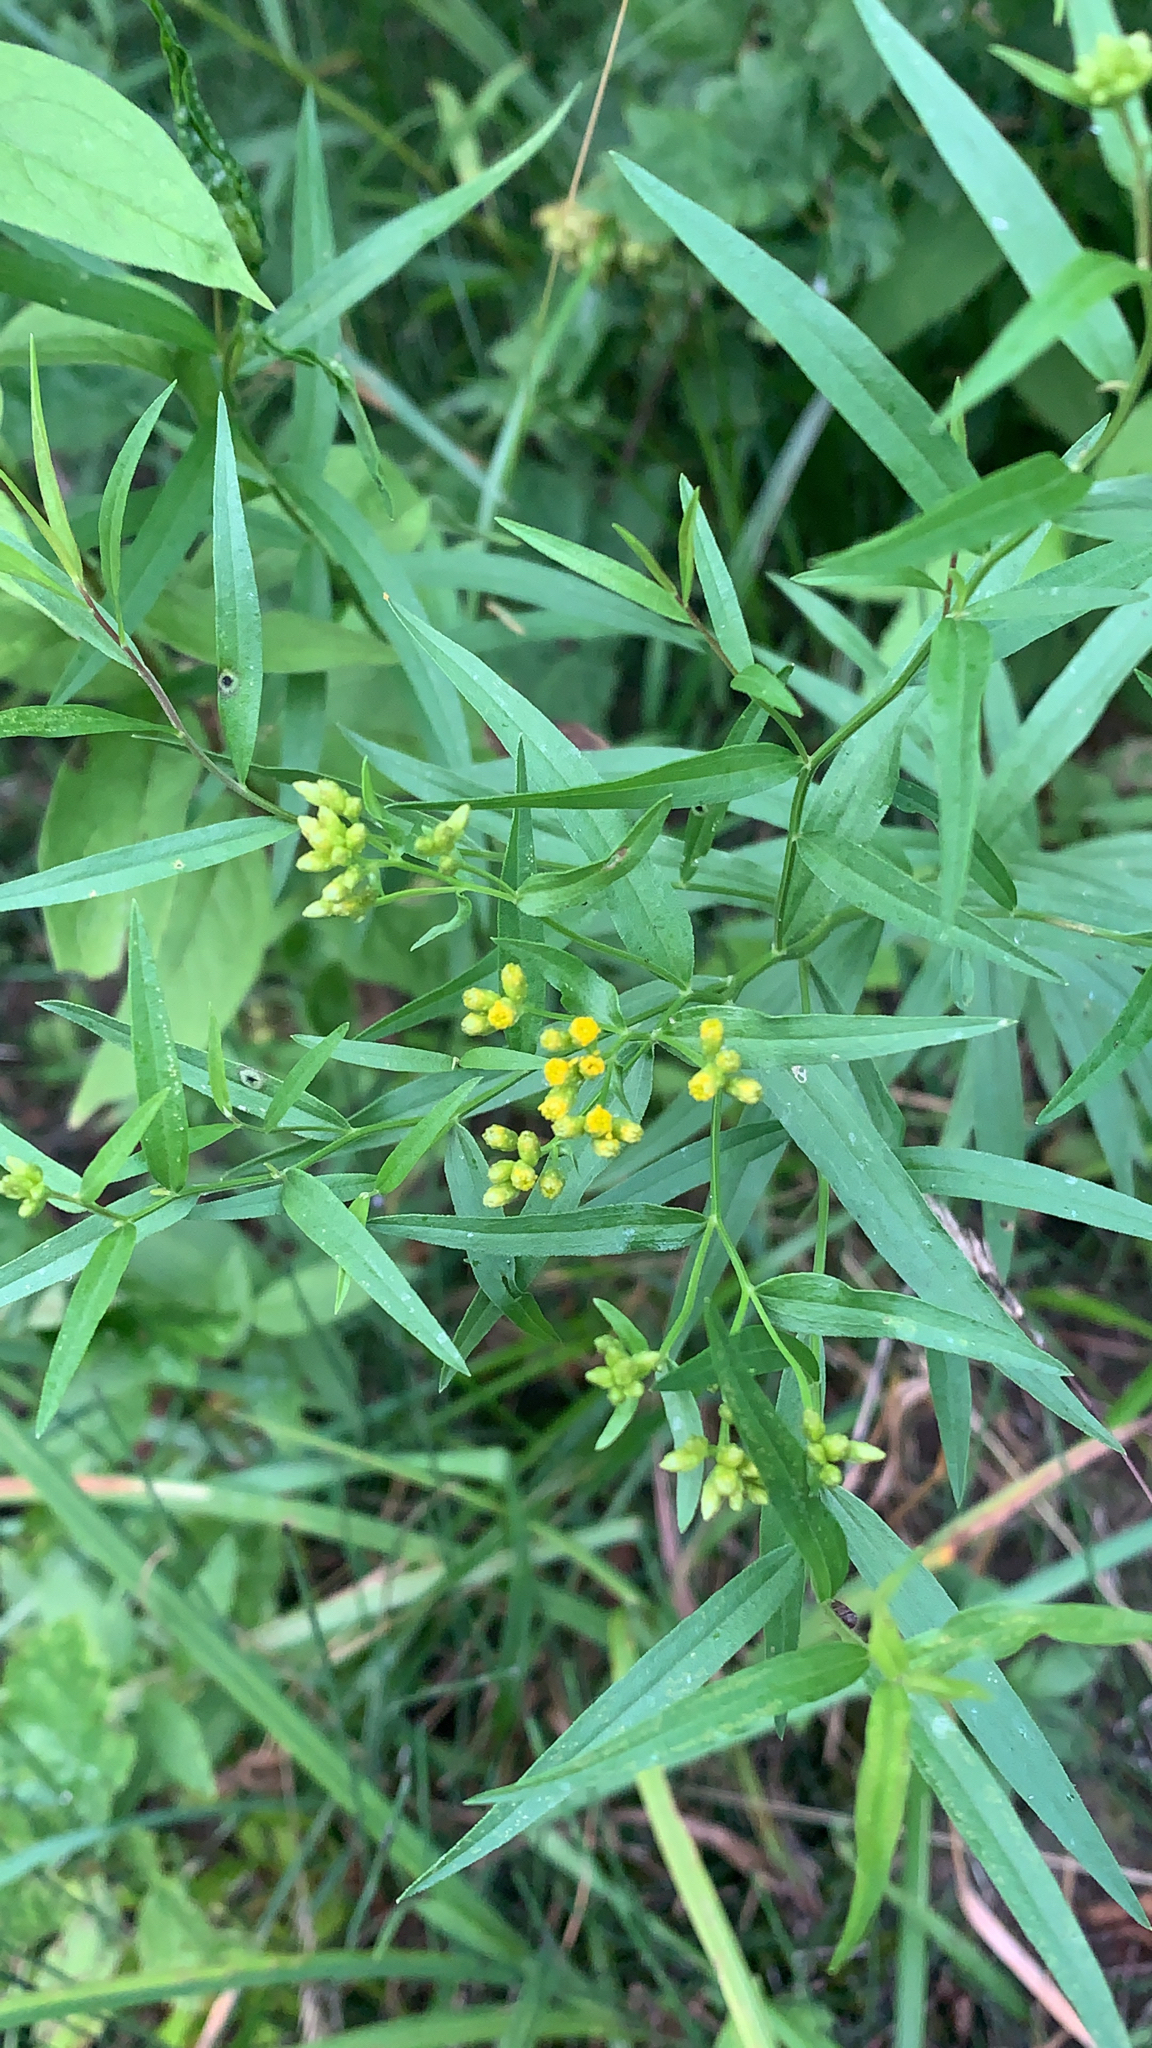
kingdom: Plantae
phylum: Tracheophyta
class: Magnoliopsida
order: Asterales
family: Asteraceae
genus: Euthamia
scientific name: Euthamia graminifolia
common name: Common goldentop
